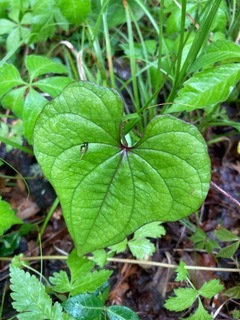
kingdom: Plantae
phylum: Tracheophyta
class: Liliopsida
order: Dioscoreales
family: Dioscoreaceae
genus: Dioscorea
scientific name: Dioscorea polystachya
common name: Chinese yam
